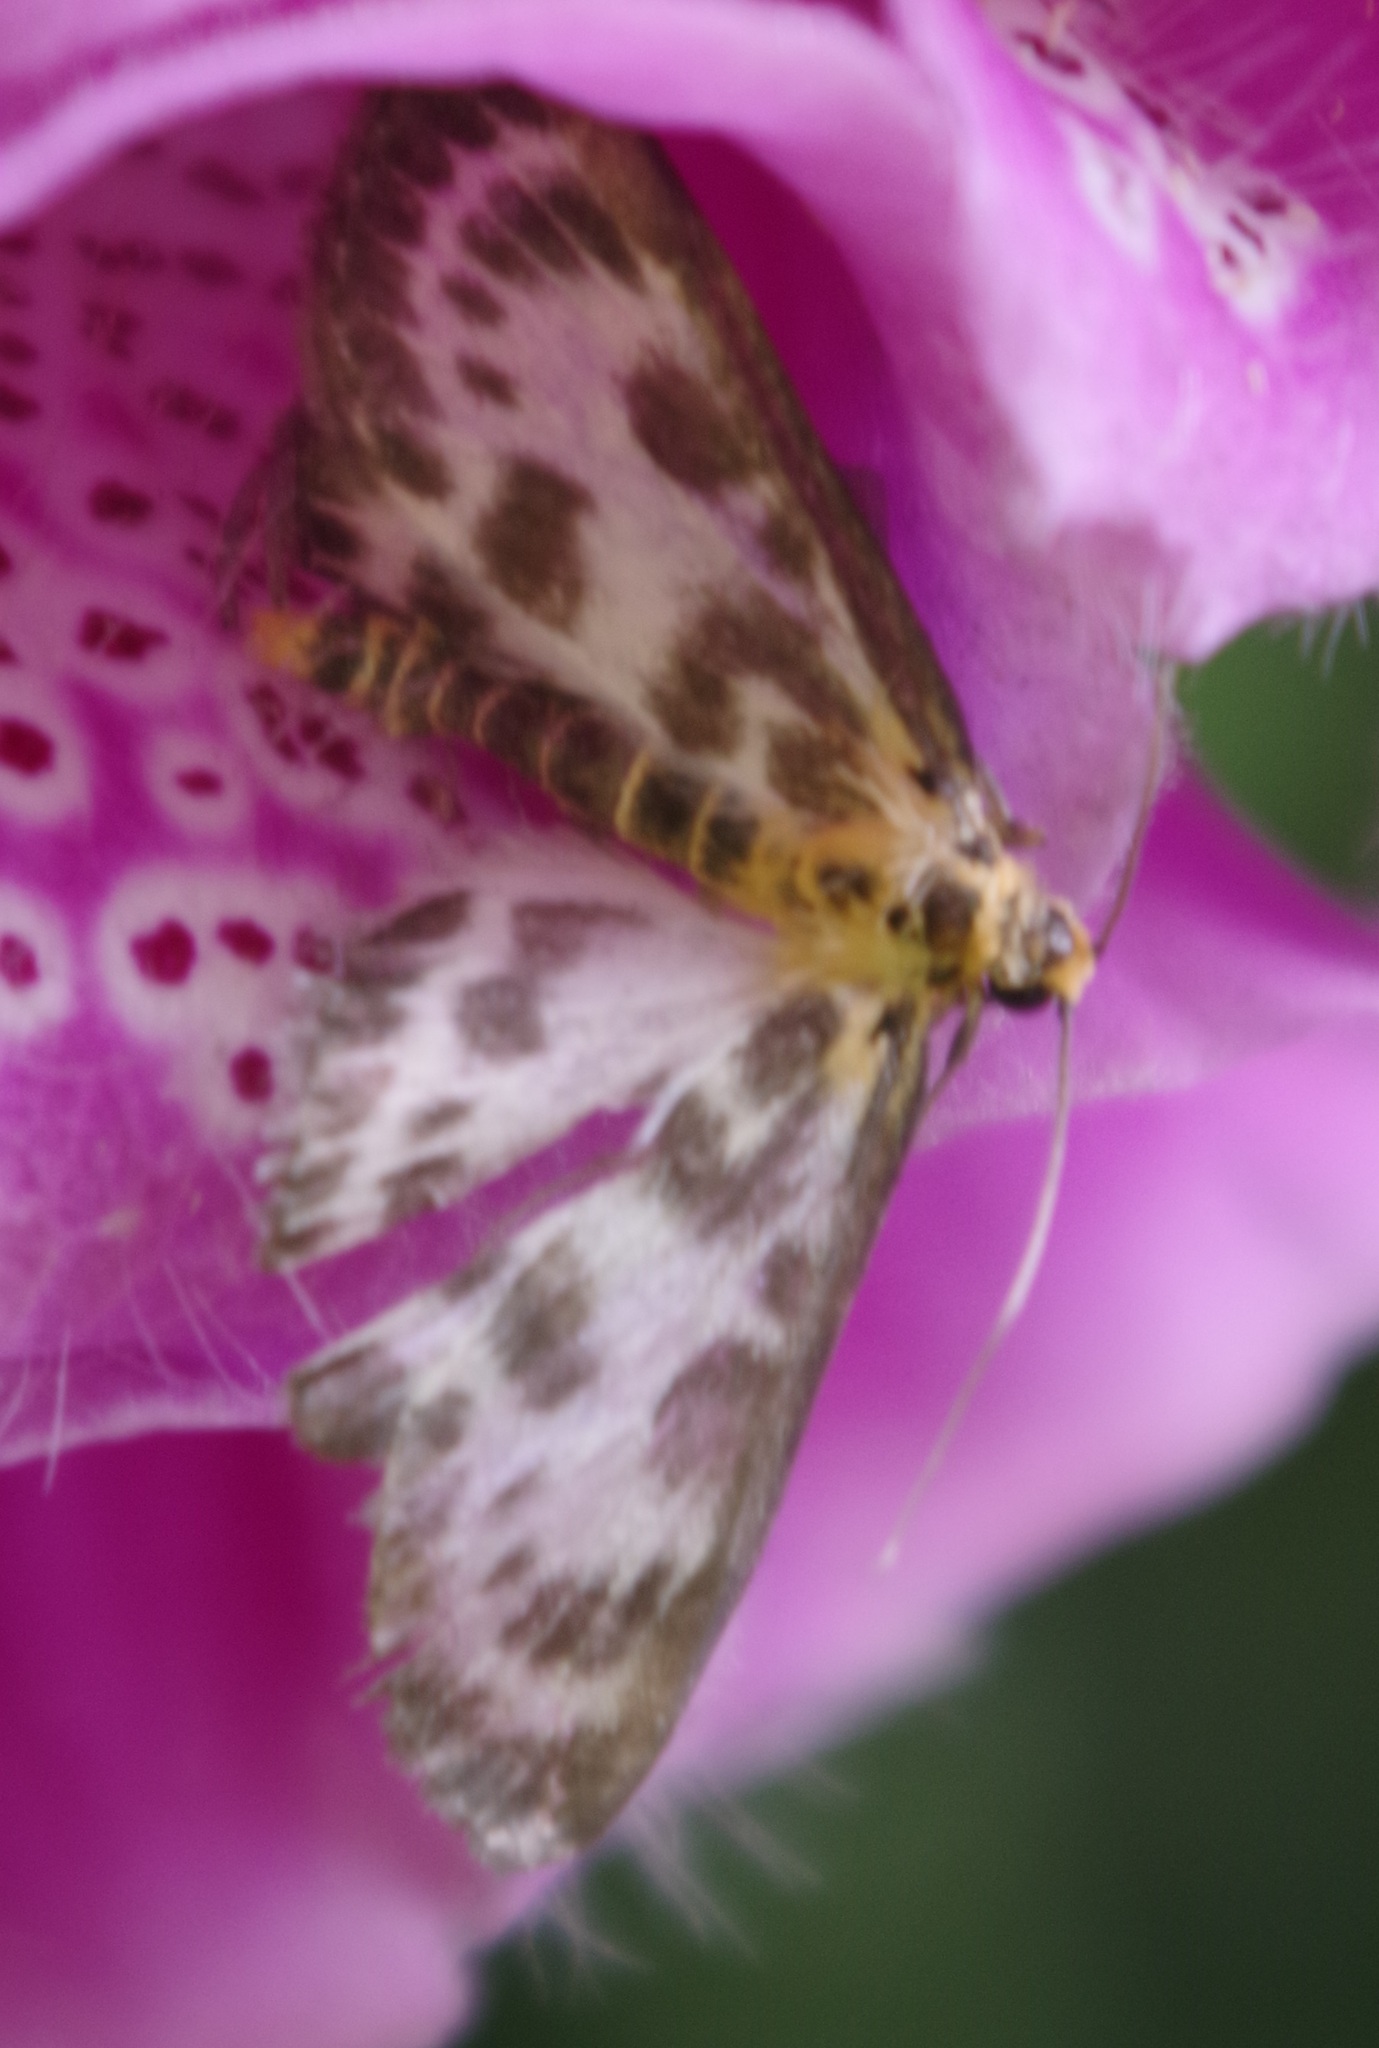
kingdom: Animalia
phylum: Arthropoda
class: Insecta
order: Lepidoptera
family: Crambidae
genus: Anania
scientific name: Anania hortulata
